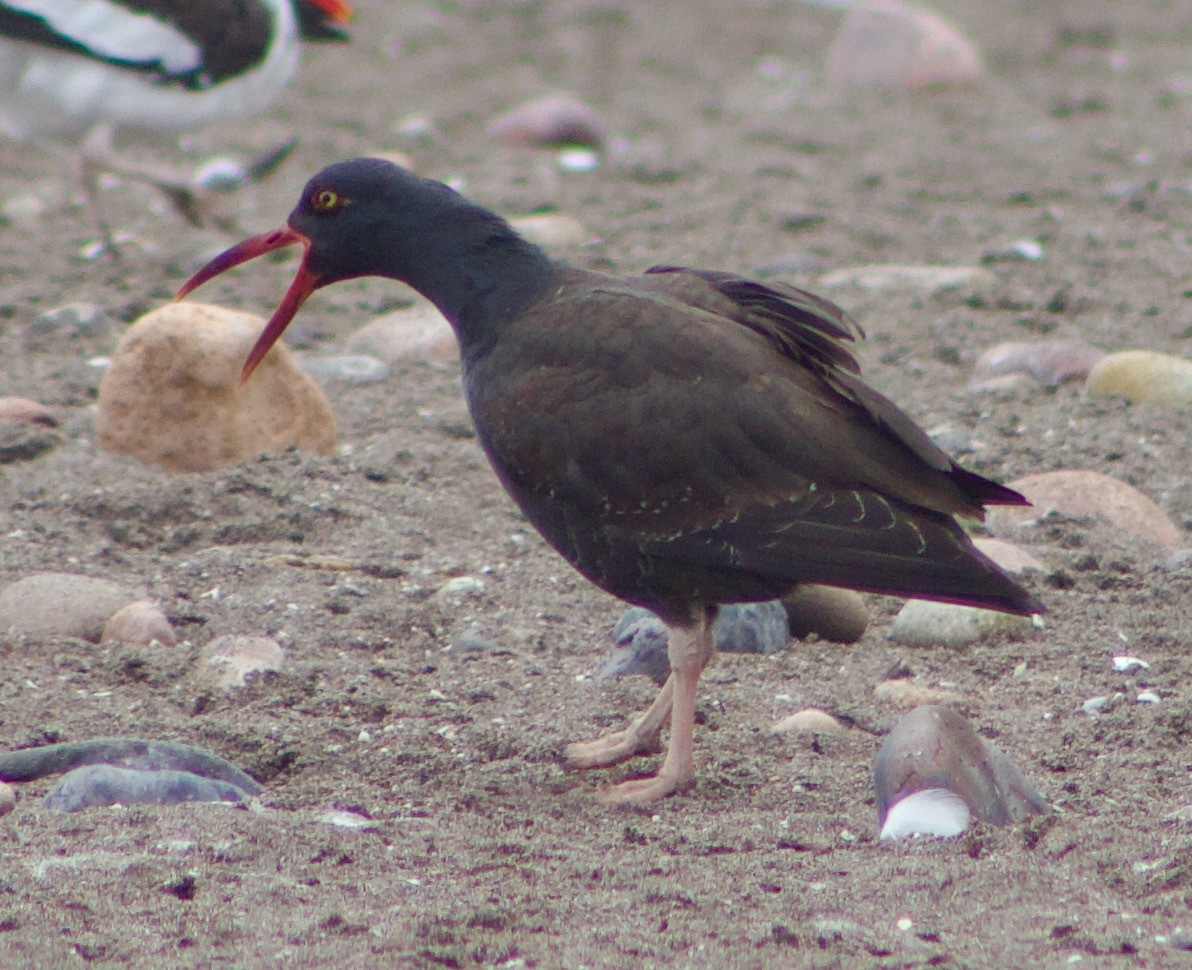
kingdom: Animalia
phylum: Chordata
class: Aves
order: Charadriiformes
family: Haematopodidae
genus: Haematopus
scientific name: Haematopus ater
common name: Blackish oystercatcher
